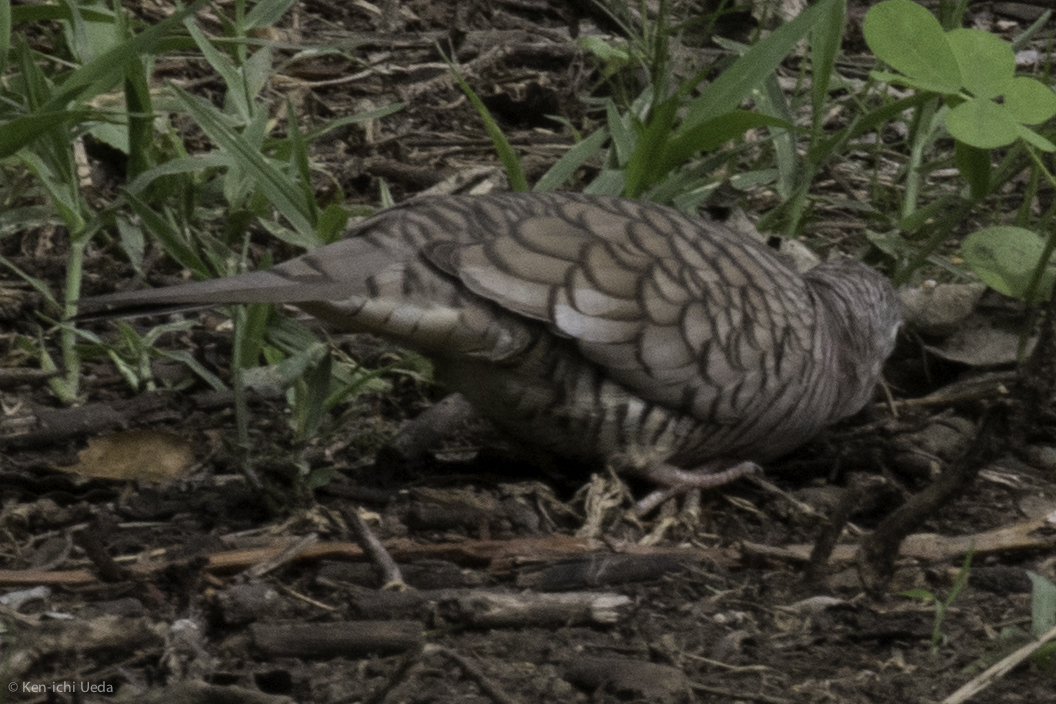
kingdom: Animalia
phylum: Chordata
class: Aves
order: Columbiformes
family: Columbidae
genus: Columbina
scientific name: Columbina inca
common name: Inca dove
